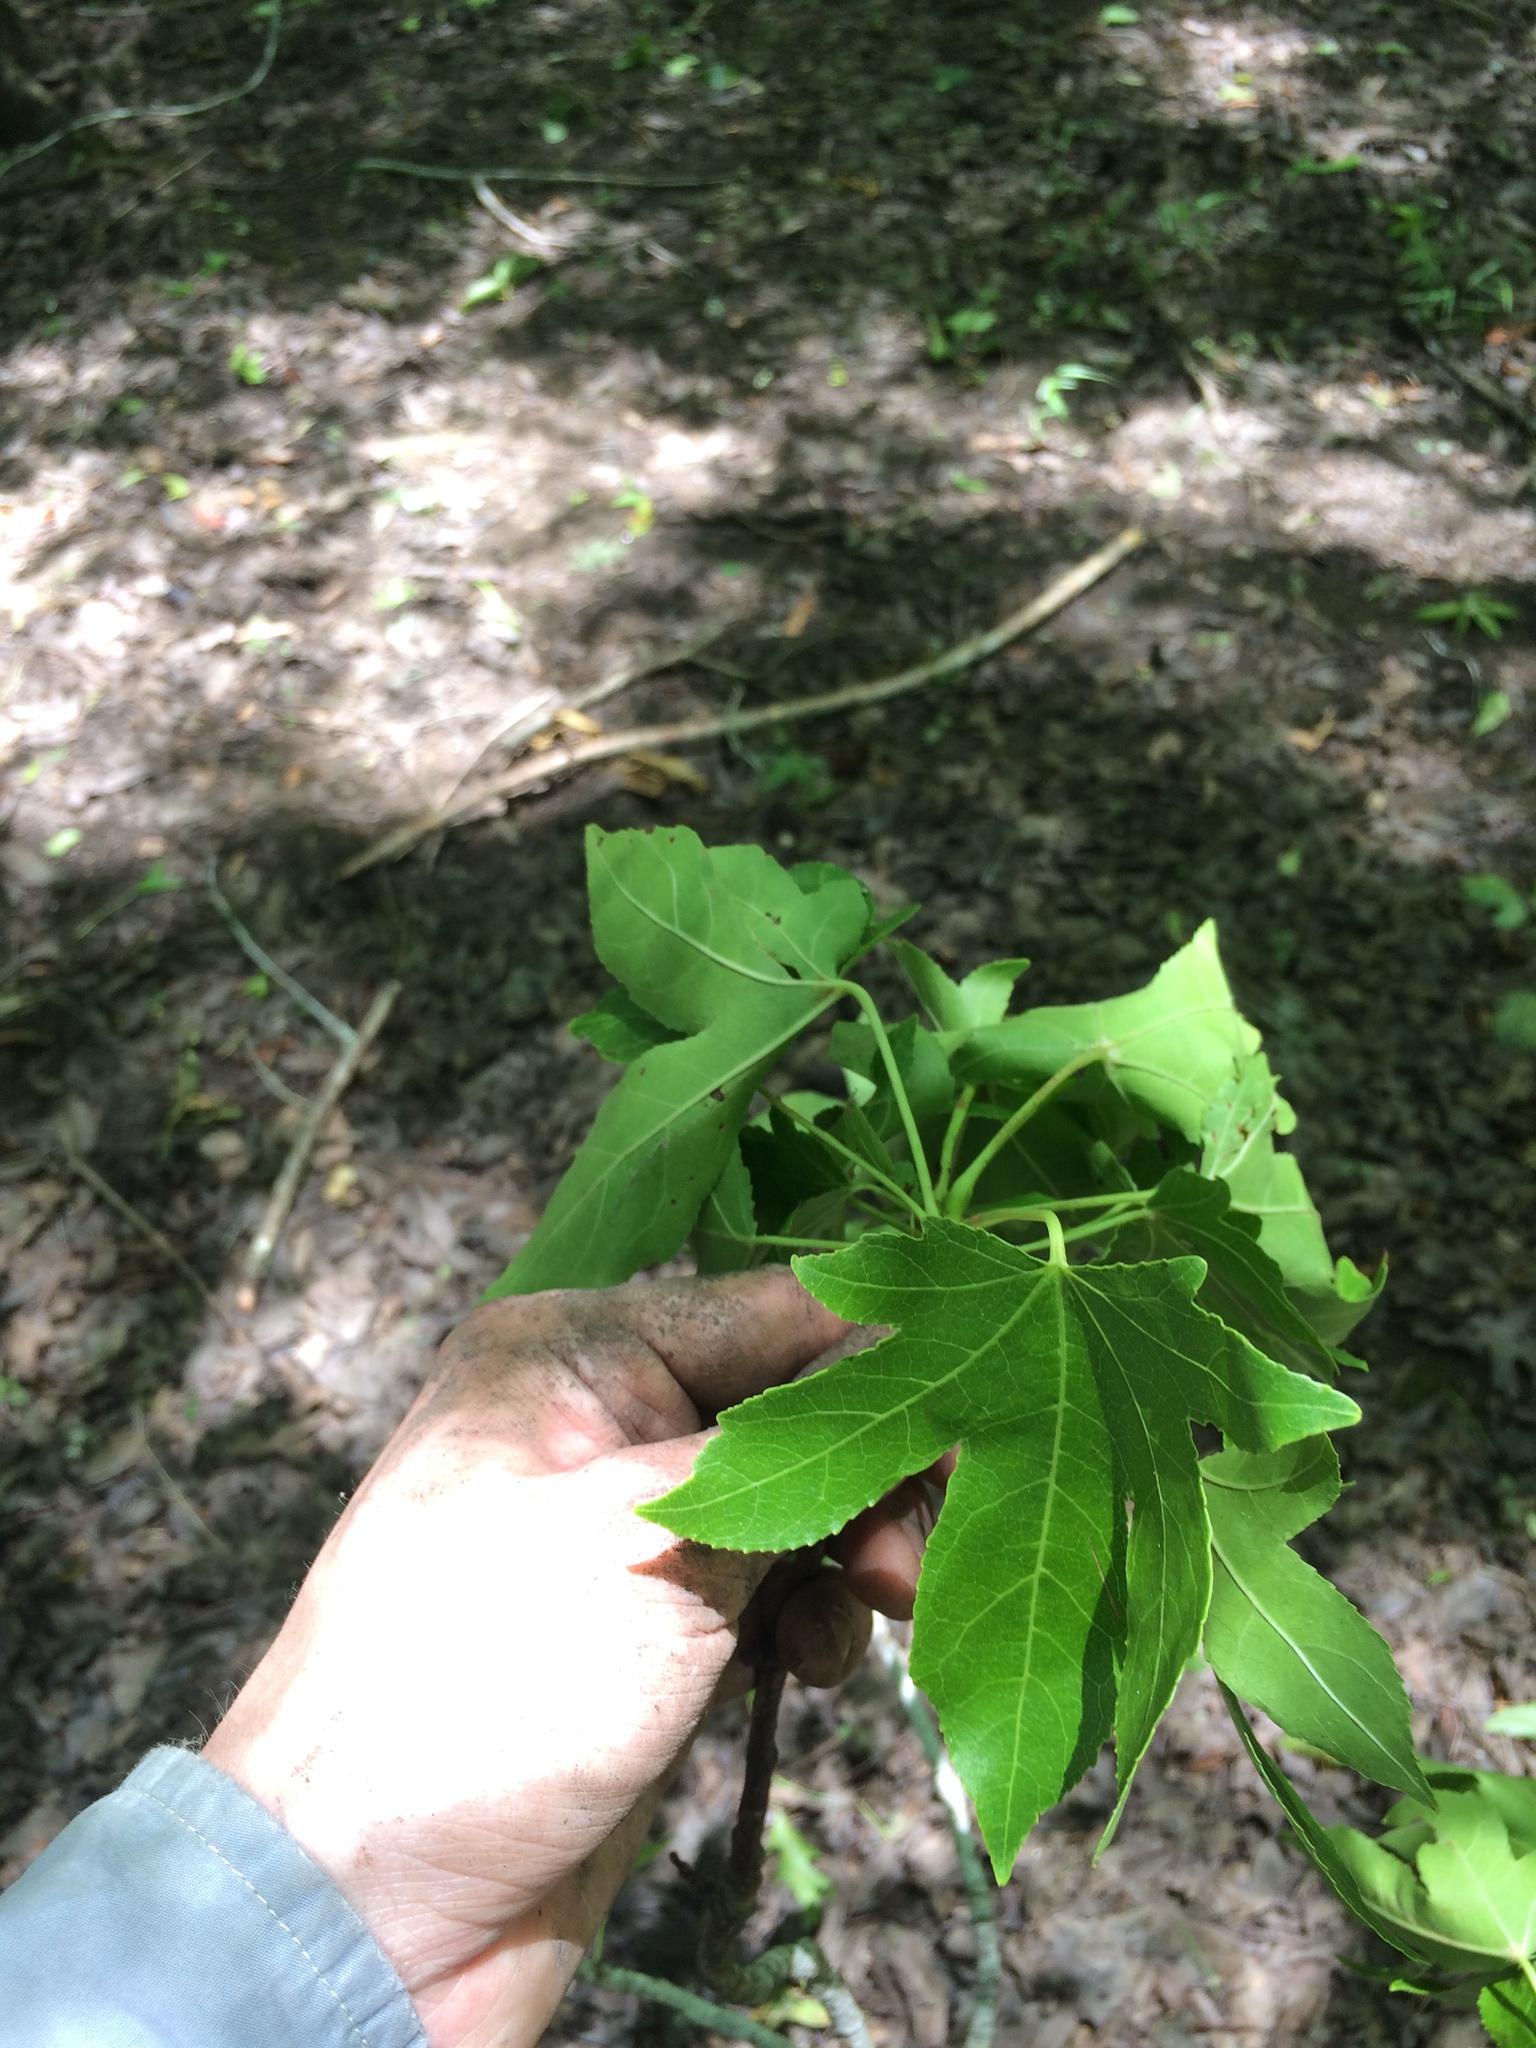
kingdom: Plantae
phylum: Tracheophyta
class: Magnoliopsida
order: Saxifragales
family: Altingiaceae
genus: Liquidambar
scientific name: Liquidambar styraciflua
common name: Sweet gum
